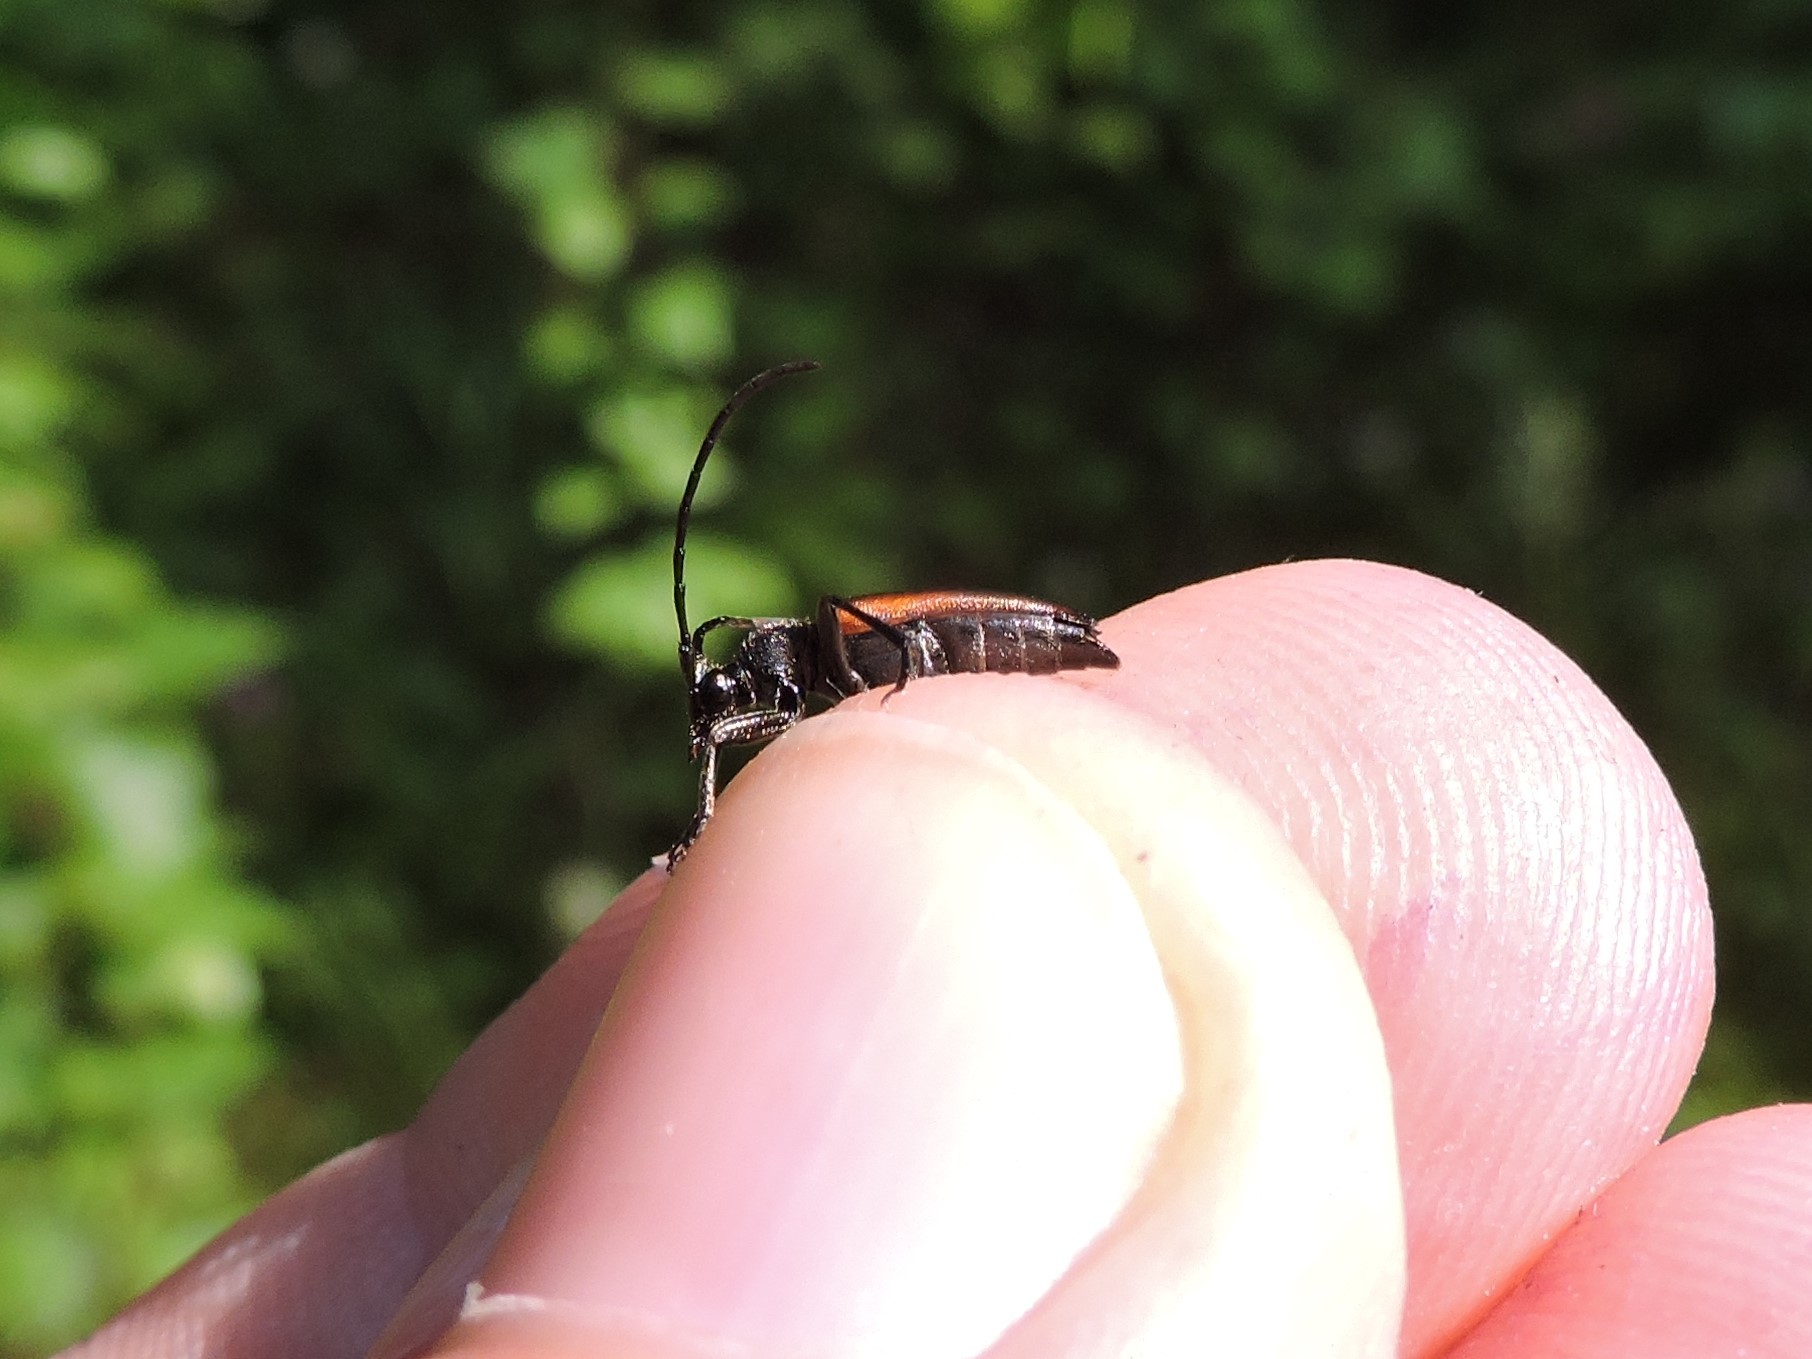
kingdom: Animalia
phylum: Arthropoda
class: Insecta
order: Coleoptera
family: Cerambycidae
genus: Stenurella
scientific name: Stenurella melanura
